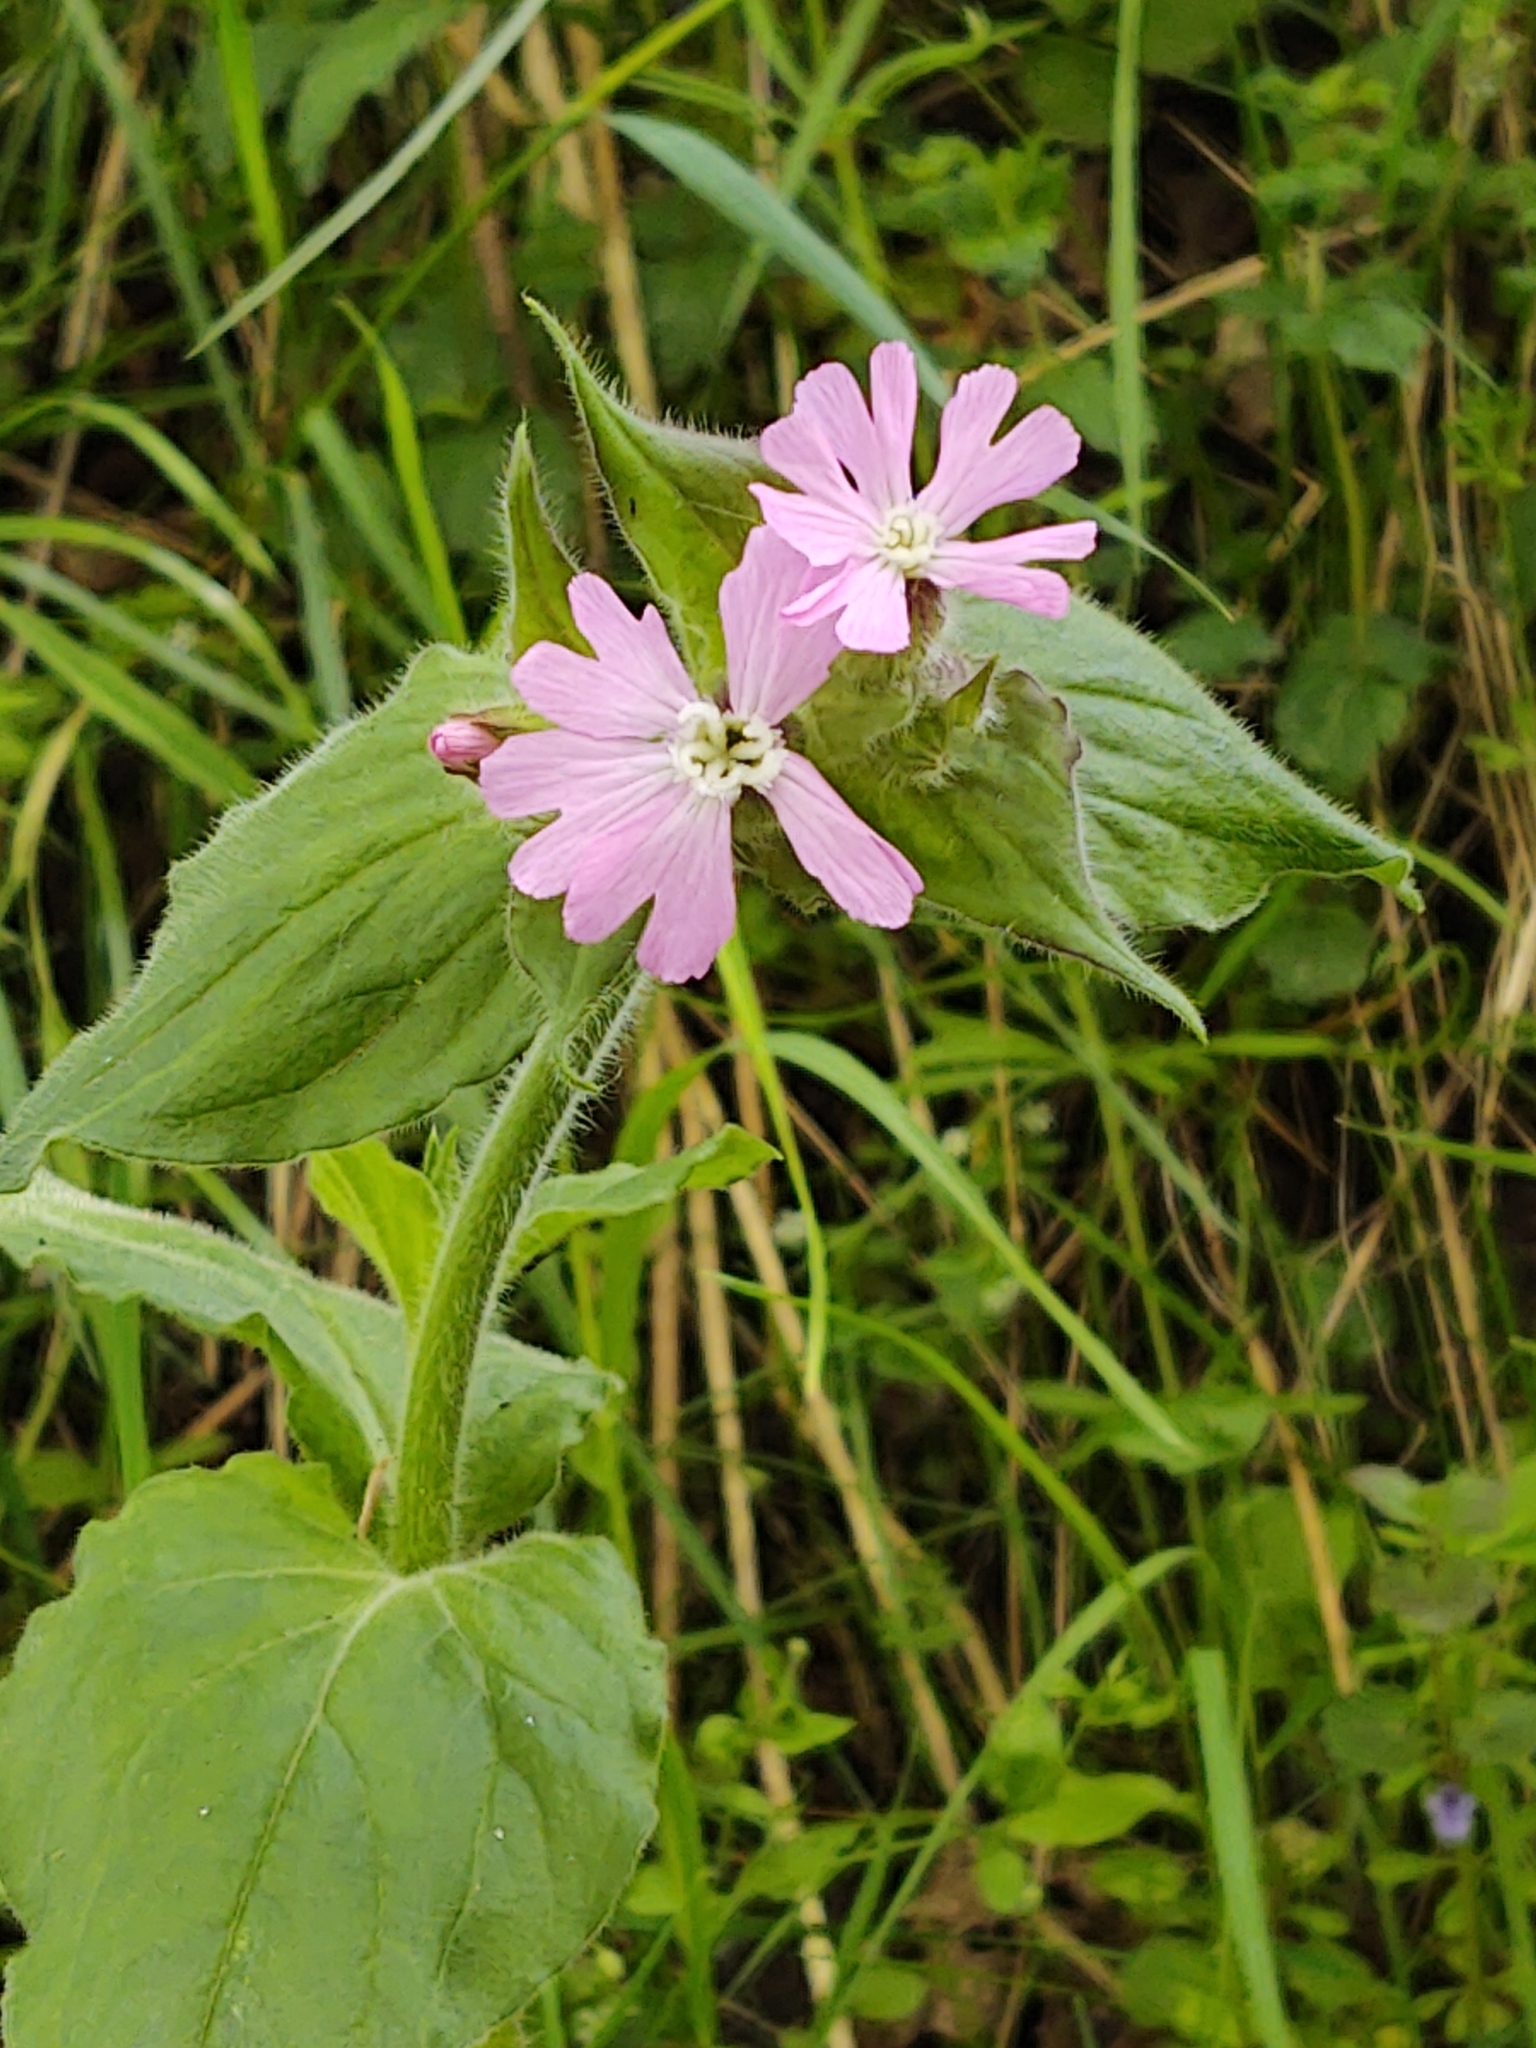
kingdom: Plantae
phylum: Tracheophyta
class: Magnoliopsida
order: Caryophyllales
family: Caryophyllaceae
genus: Silene
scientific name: Silene dioica
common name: Red campion
